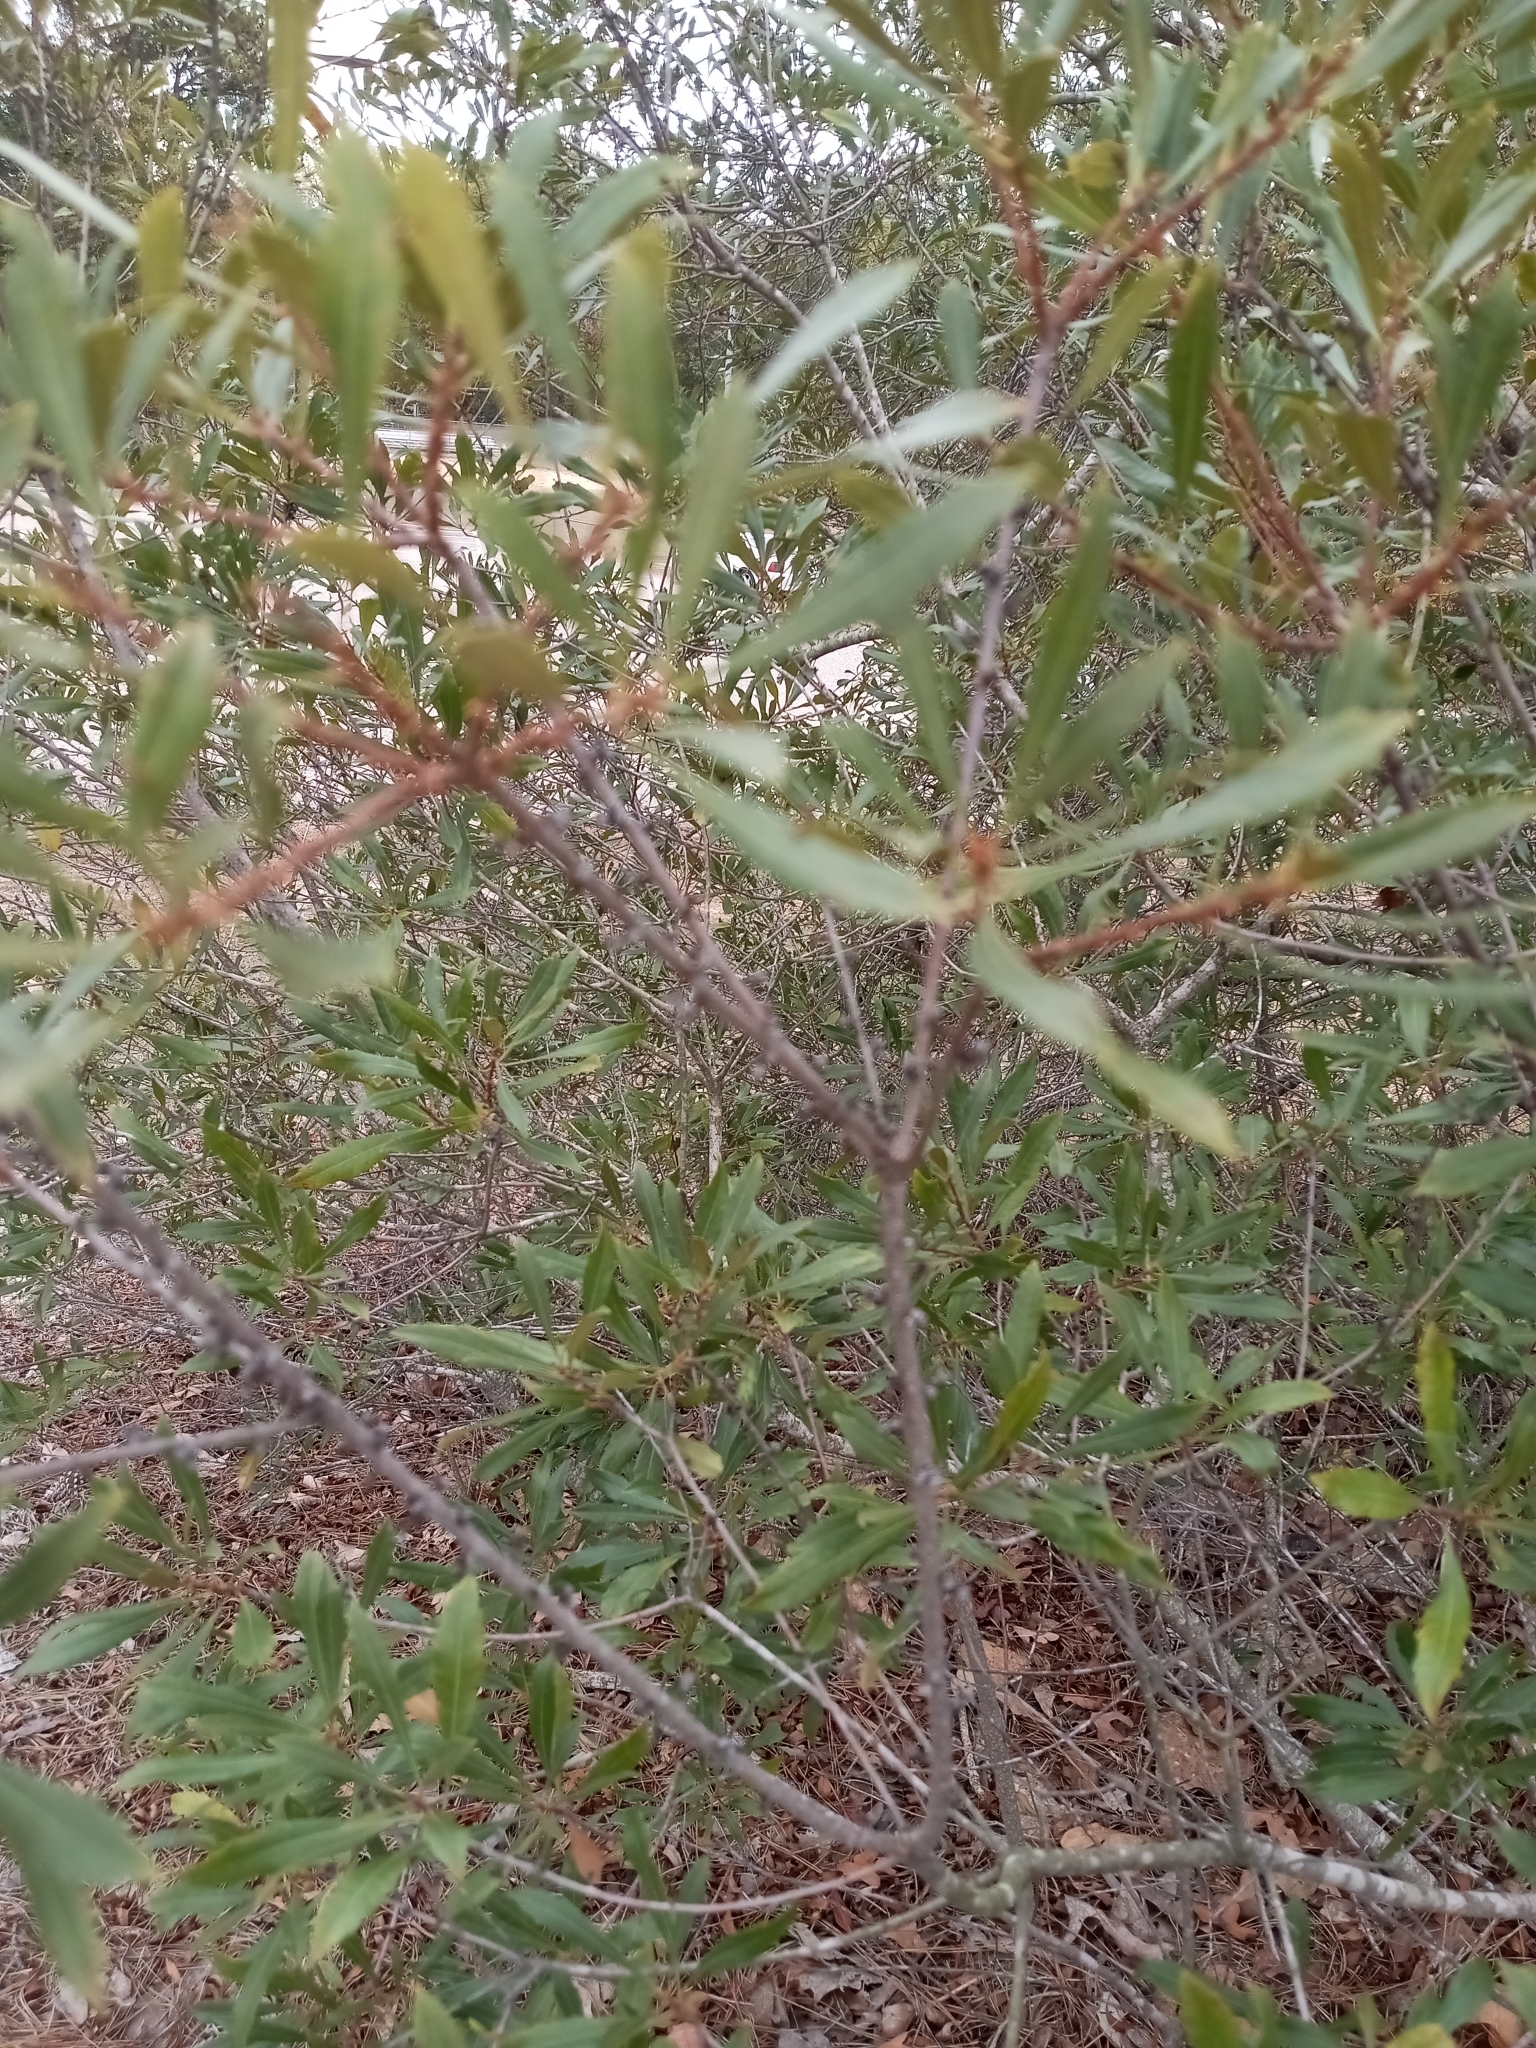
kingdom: Plantae
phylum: Tracheophyta
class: Magnoliopsida
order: Fagales
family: Myricaceae
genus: Morella
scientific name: Morella cerifera
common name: Wax myrtle
